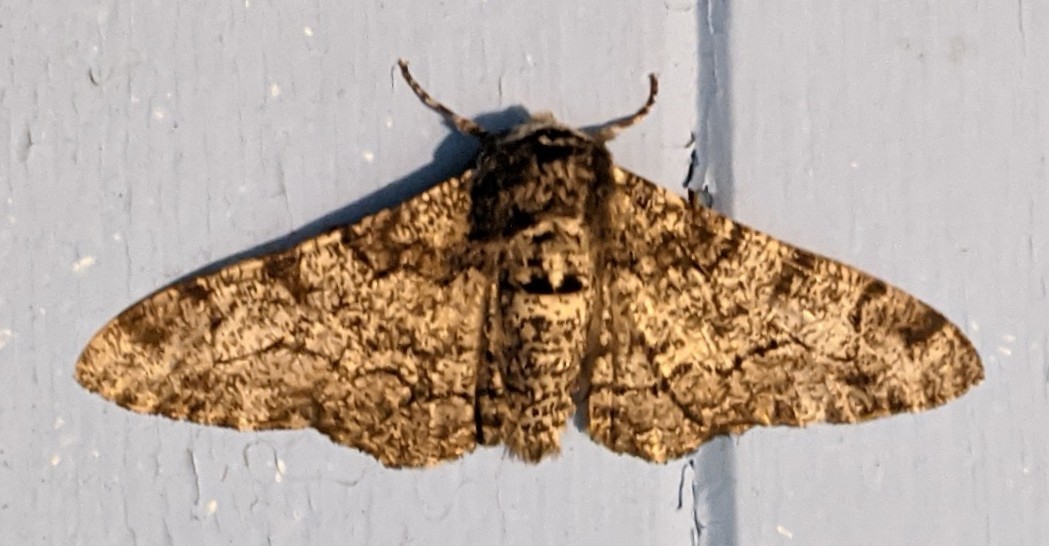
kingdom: Animalia
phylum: Arthropoda
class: Insecta
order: Lepidoptera
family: Geometridae
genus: Biston
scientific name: Biston betularia
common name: Peppered moth
